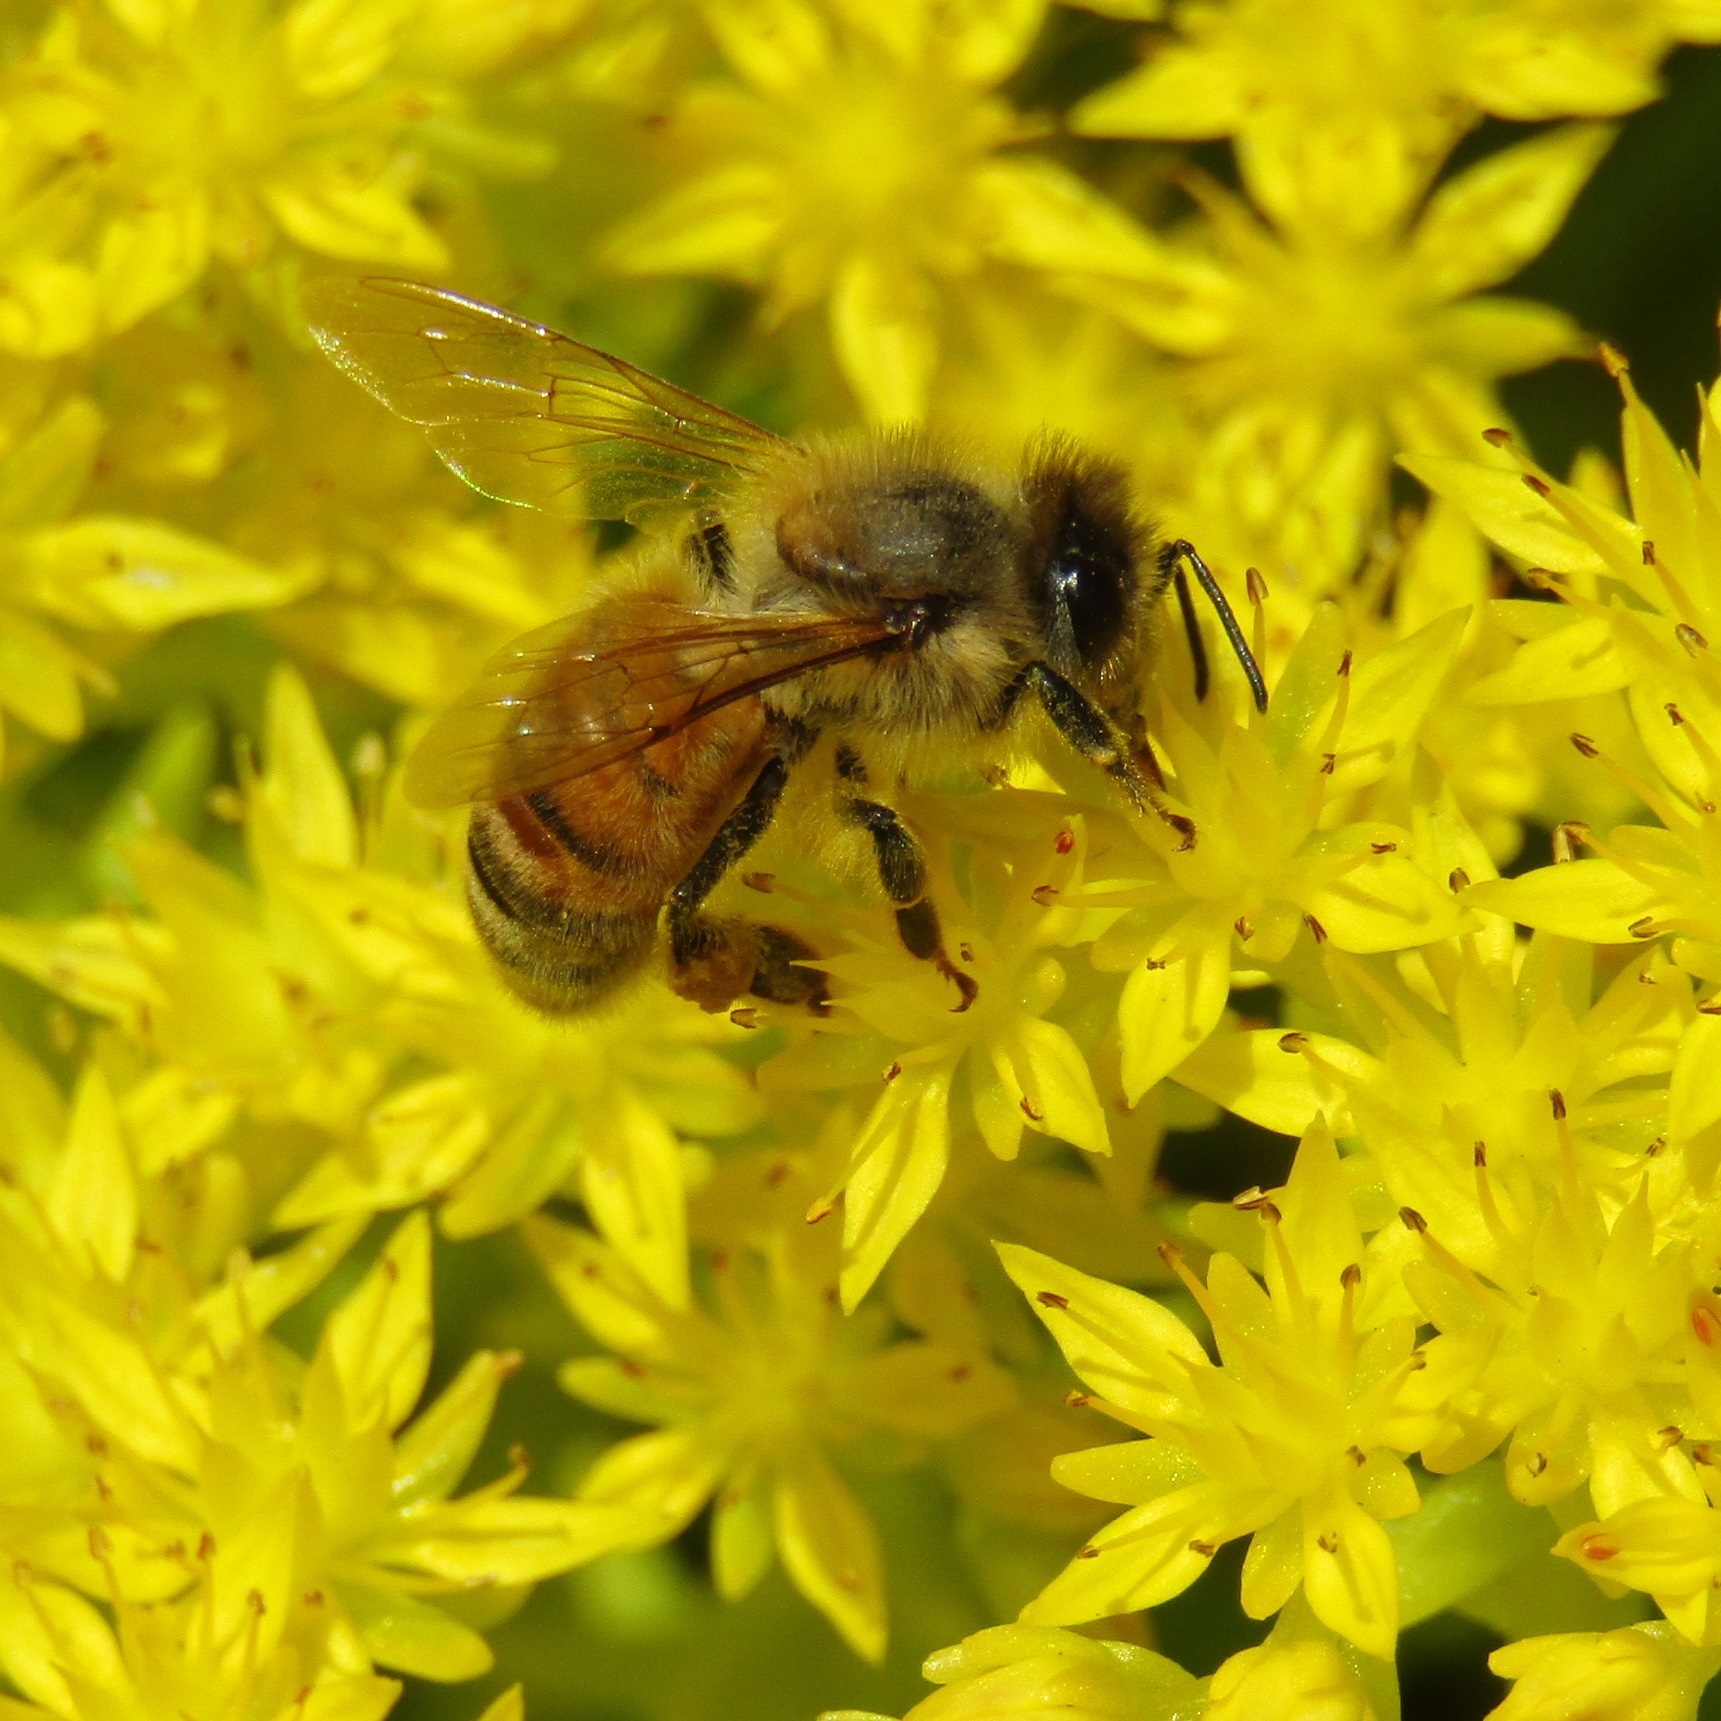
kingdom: Animalia
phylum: Arthropoda
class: Insecta
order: Hymenoptera
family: Apidae
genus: Apis
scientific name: Apis mellifera
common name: Honey bee
